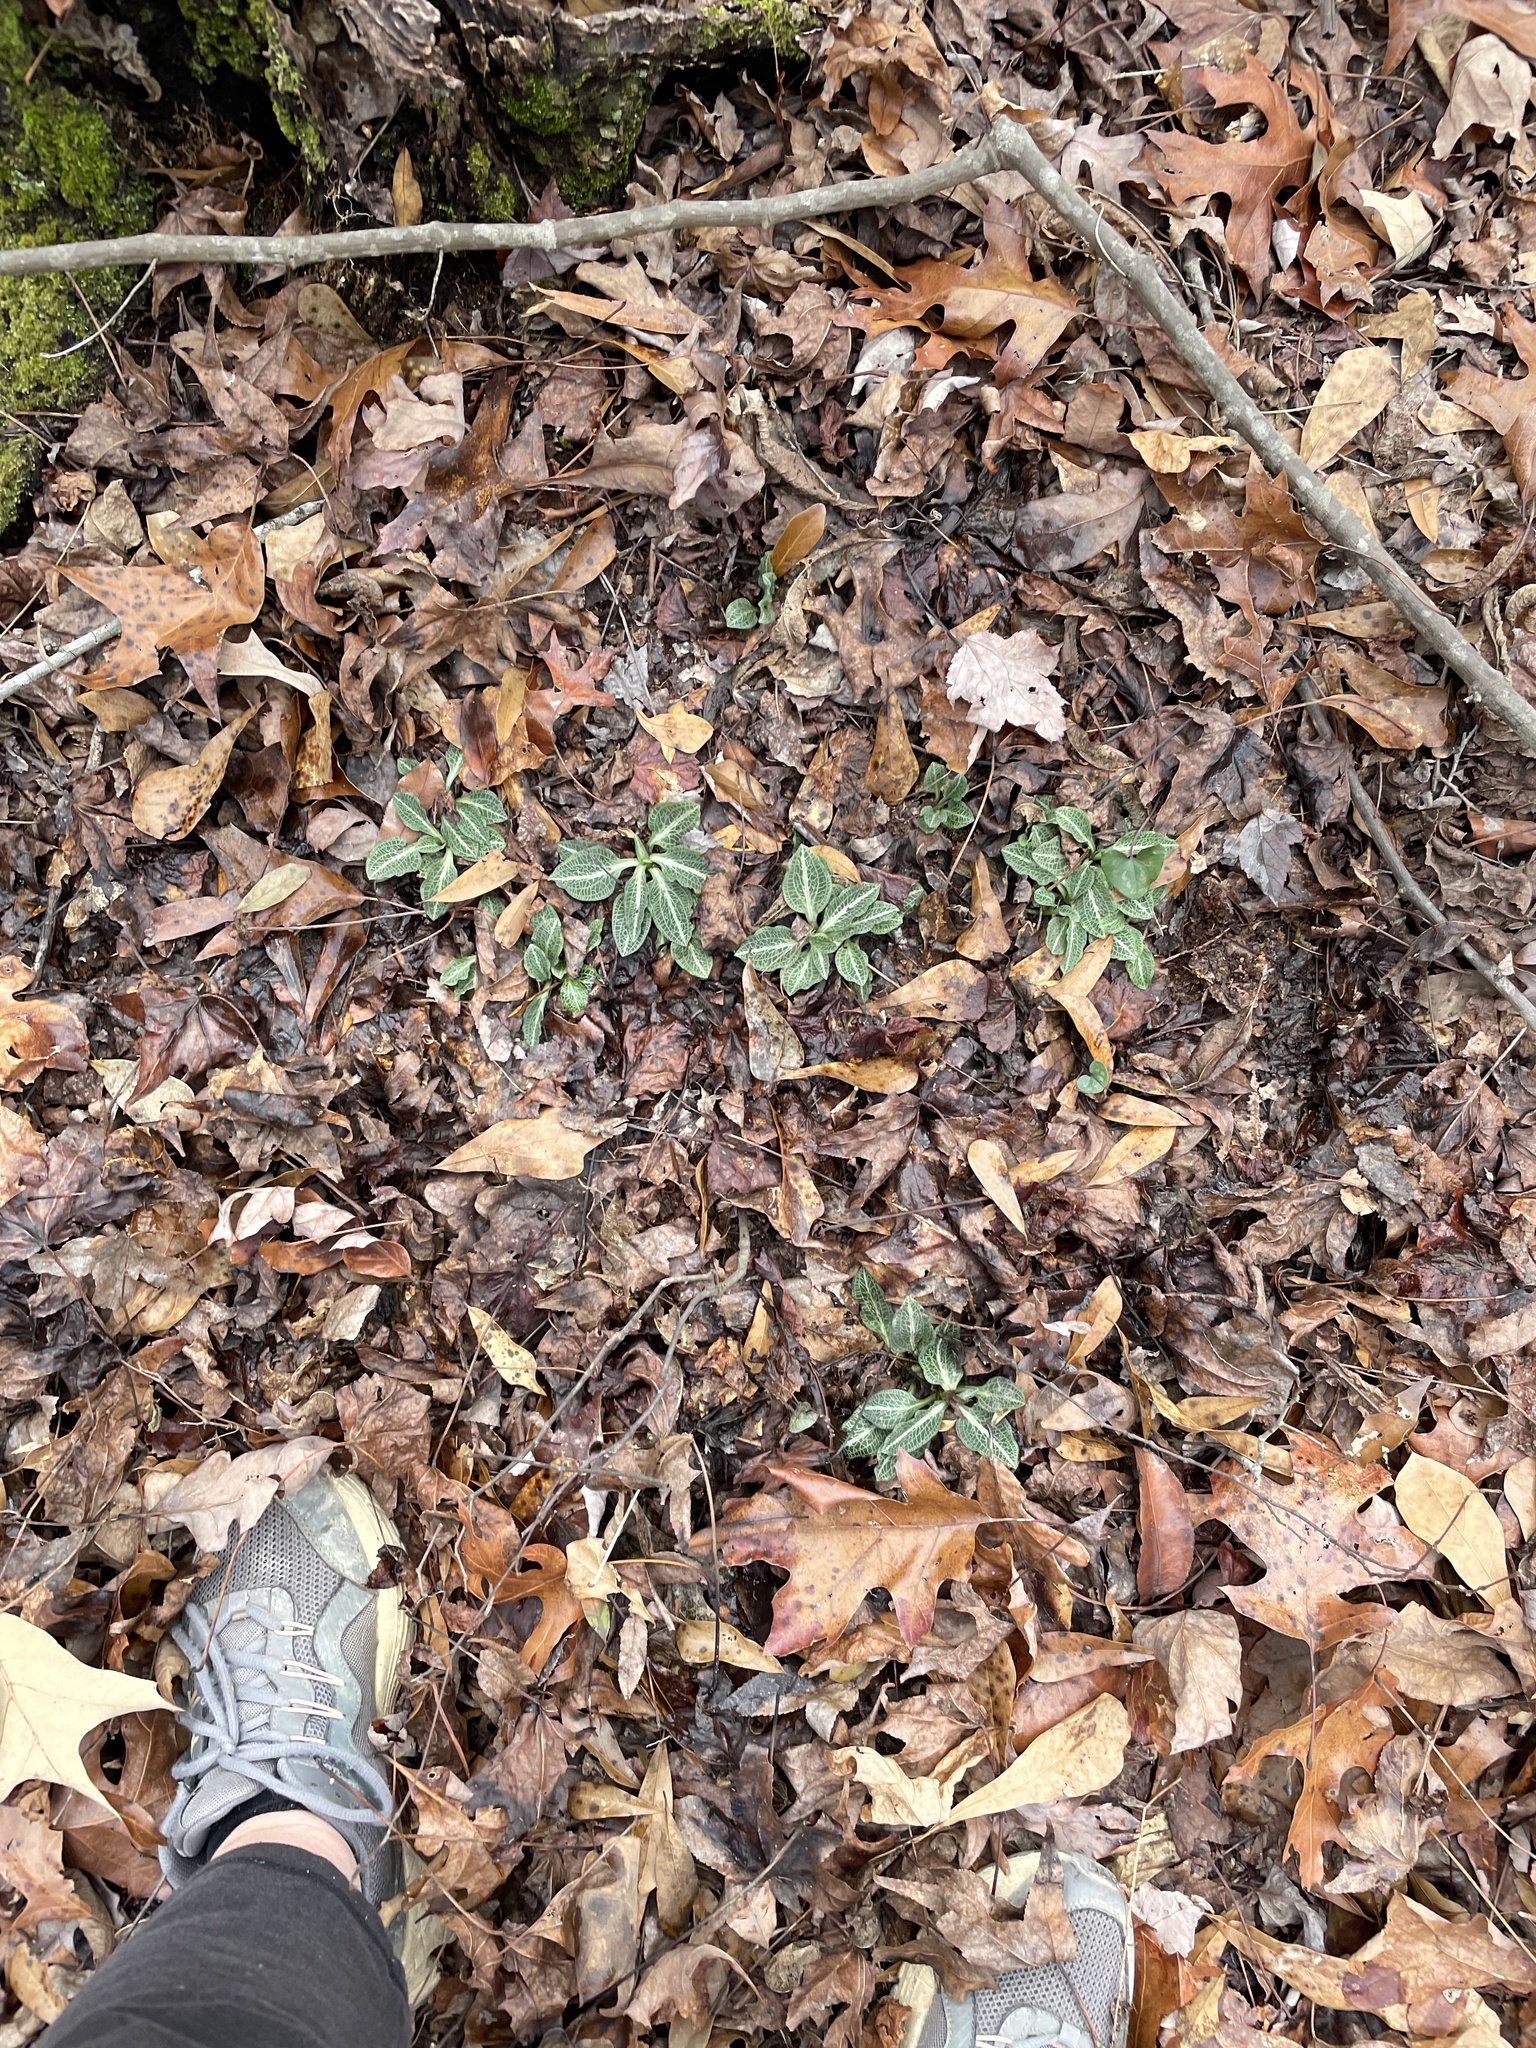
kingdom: Plantae
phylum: Tracheophyta
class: Liliopsida
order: Asparagales
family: Orchidaceae
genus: Goodyera
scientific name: Goodyera pubescens
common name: Downy rattlesnake-plantain
